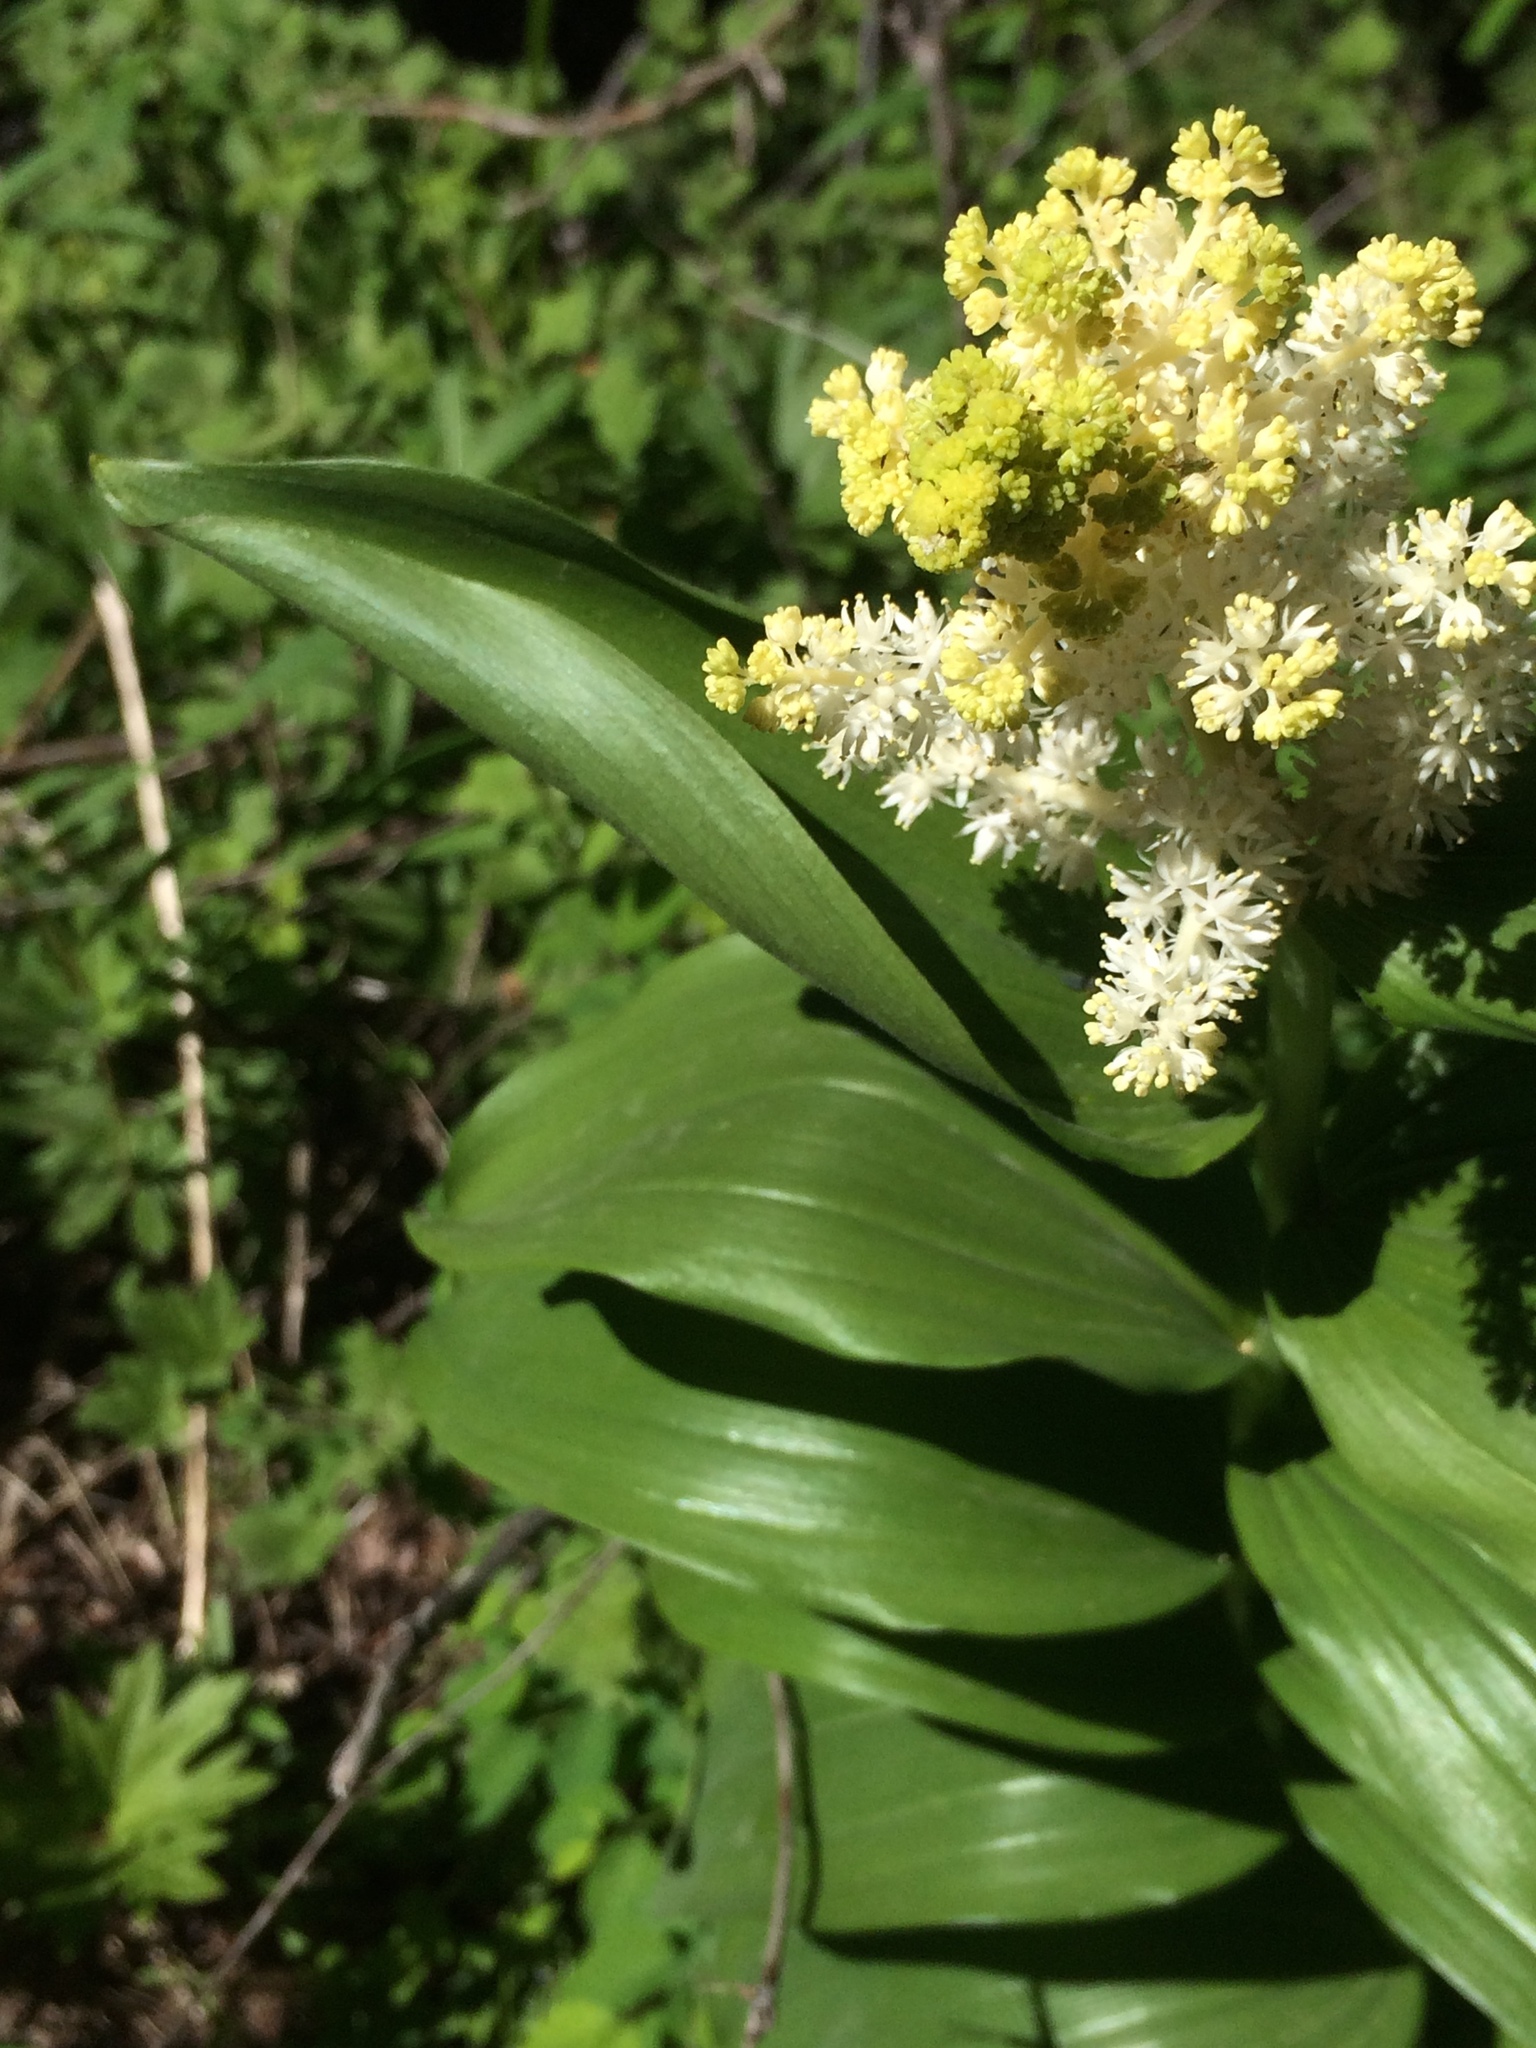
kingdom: Plantae
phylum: Tracheophyta
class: Liliopsida
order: Asparagales
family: Asparagaceae
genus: Maianthemum
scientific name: Maianthemum racemosum
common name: False spikenard
